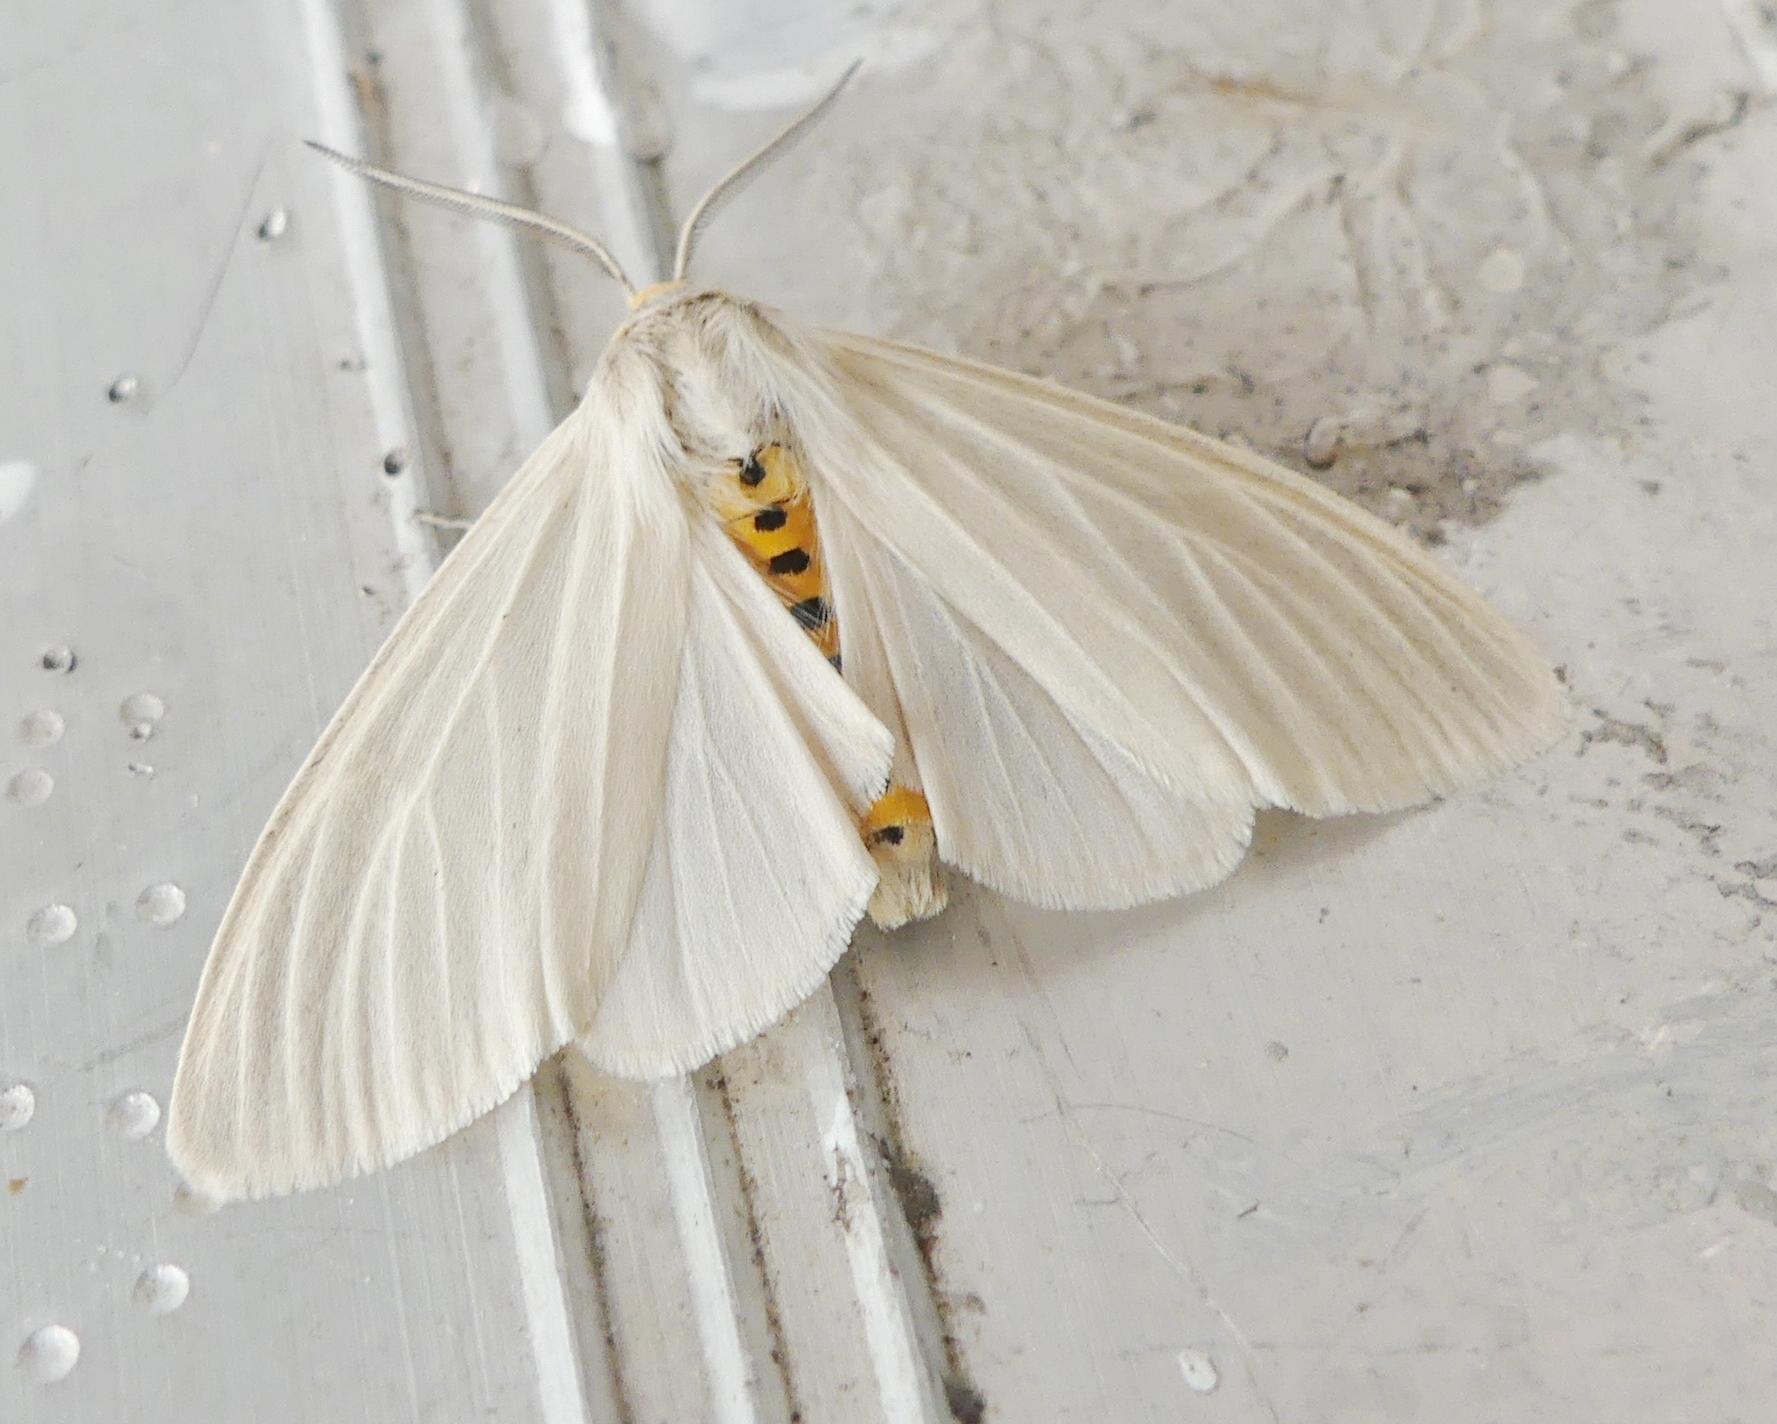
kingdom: Animalia
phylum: Arthropoda
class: Insecta
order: Lepidoptera
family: Erebidae
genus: Cycnia
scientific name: Cycnia oregonensis
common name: Oregon cycnia moth
